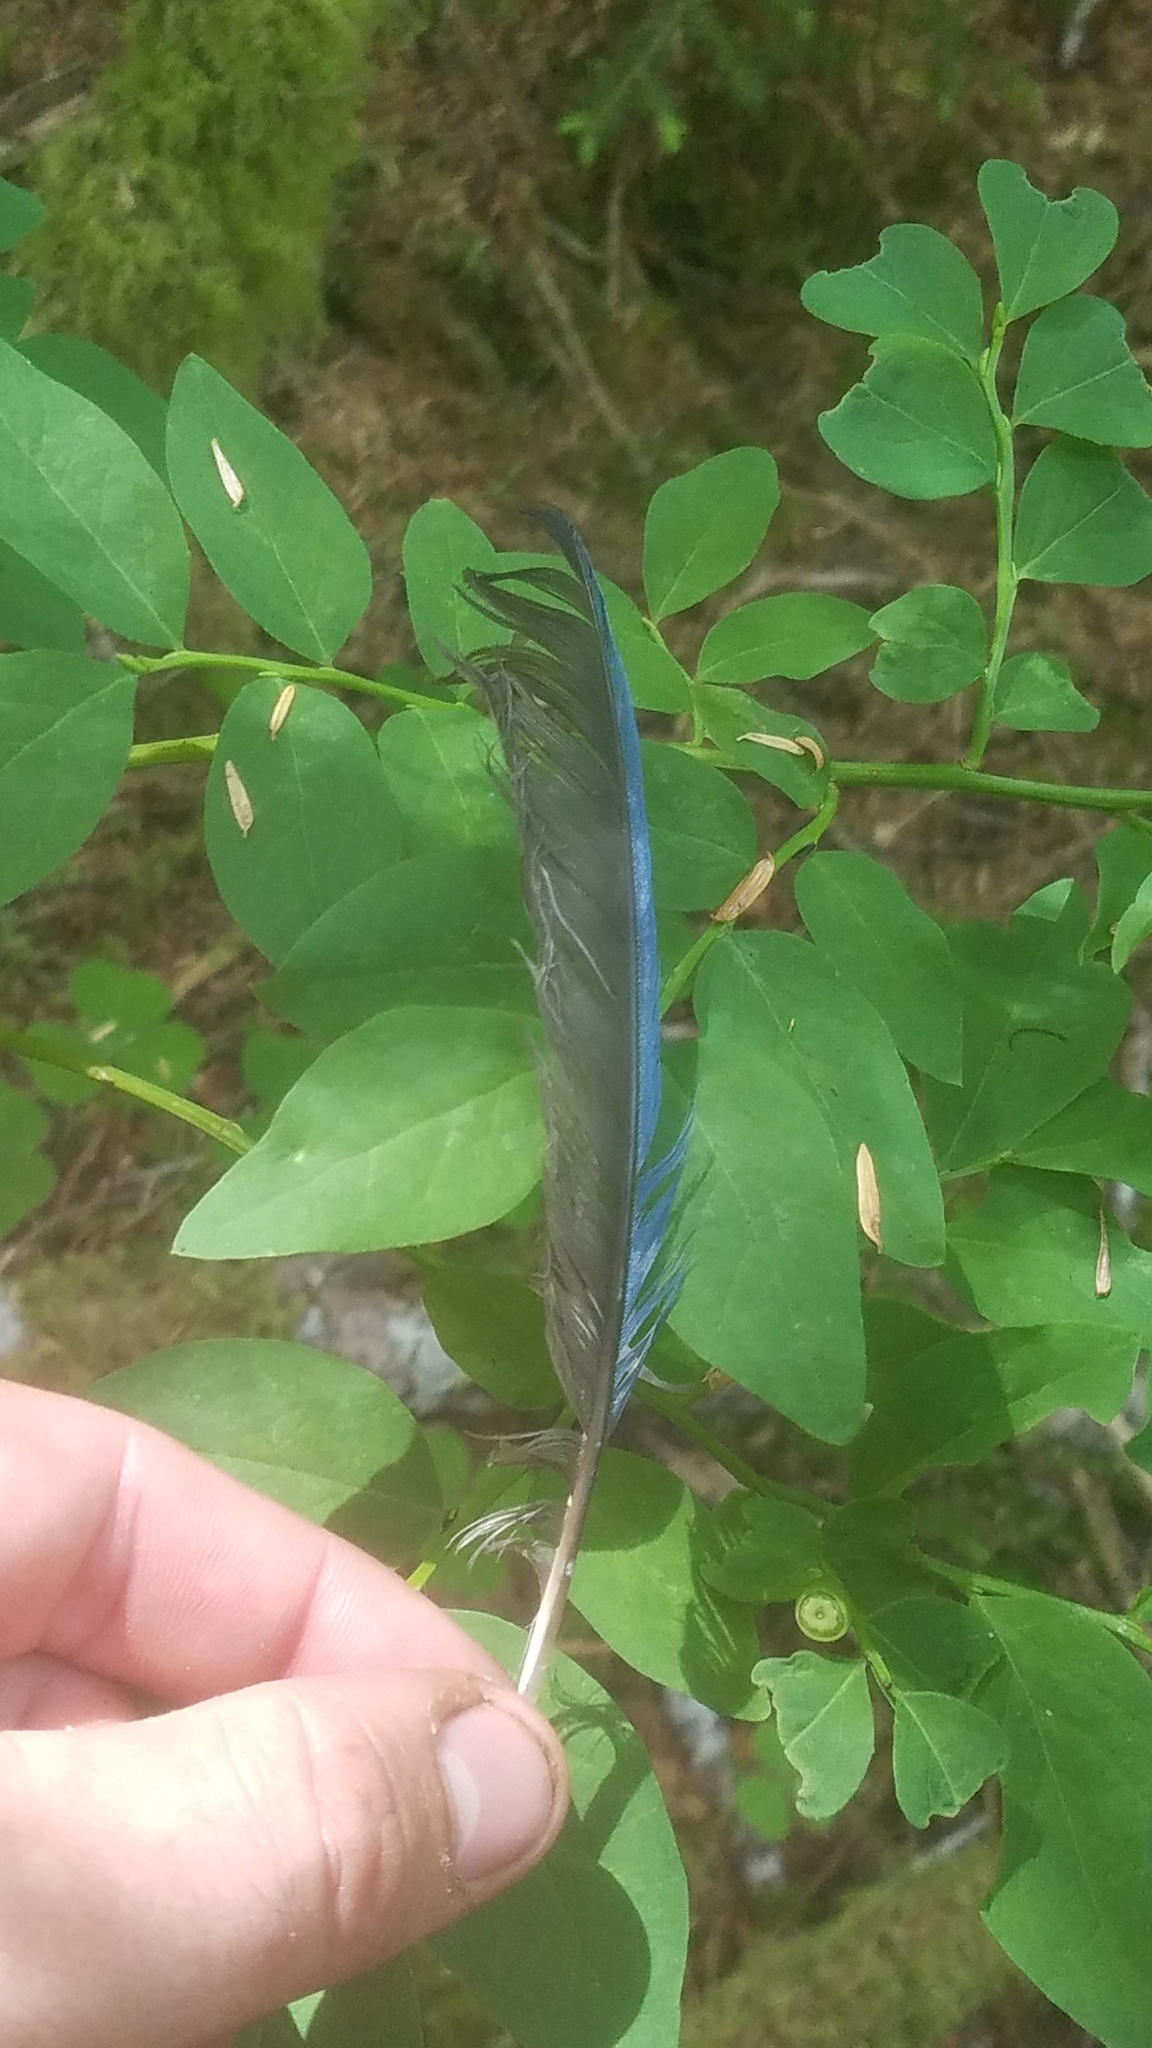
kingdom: Animalia
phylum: Chordata
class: Aves
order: Passeriformes
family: Corvidae
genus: Cyanocitta
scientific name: Cyanocitta stelleri
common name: Steller's jay
